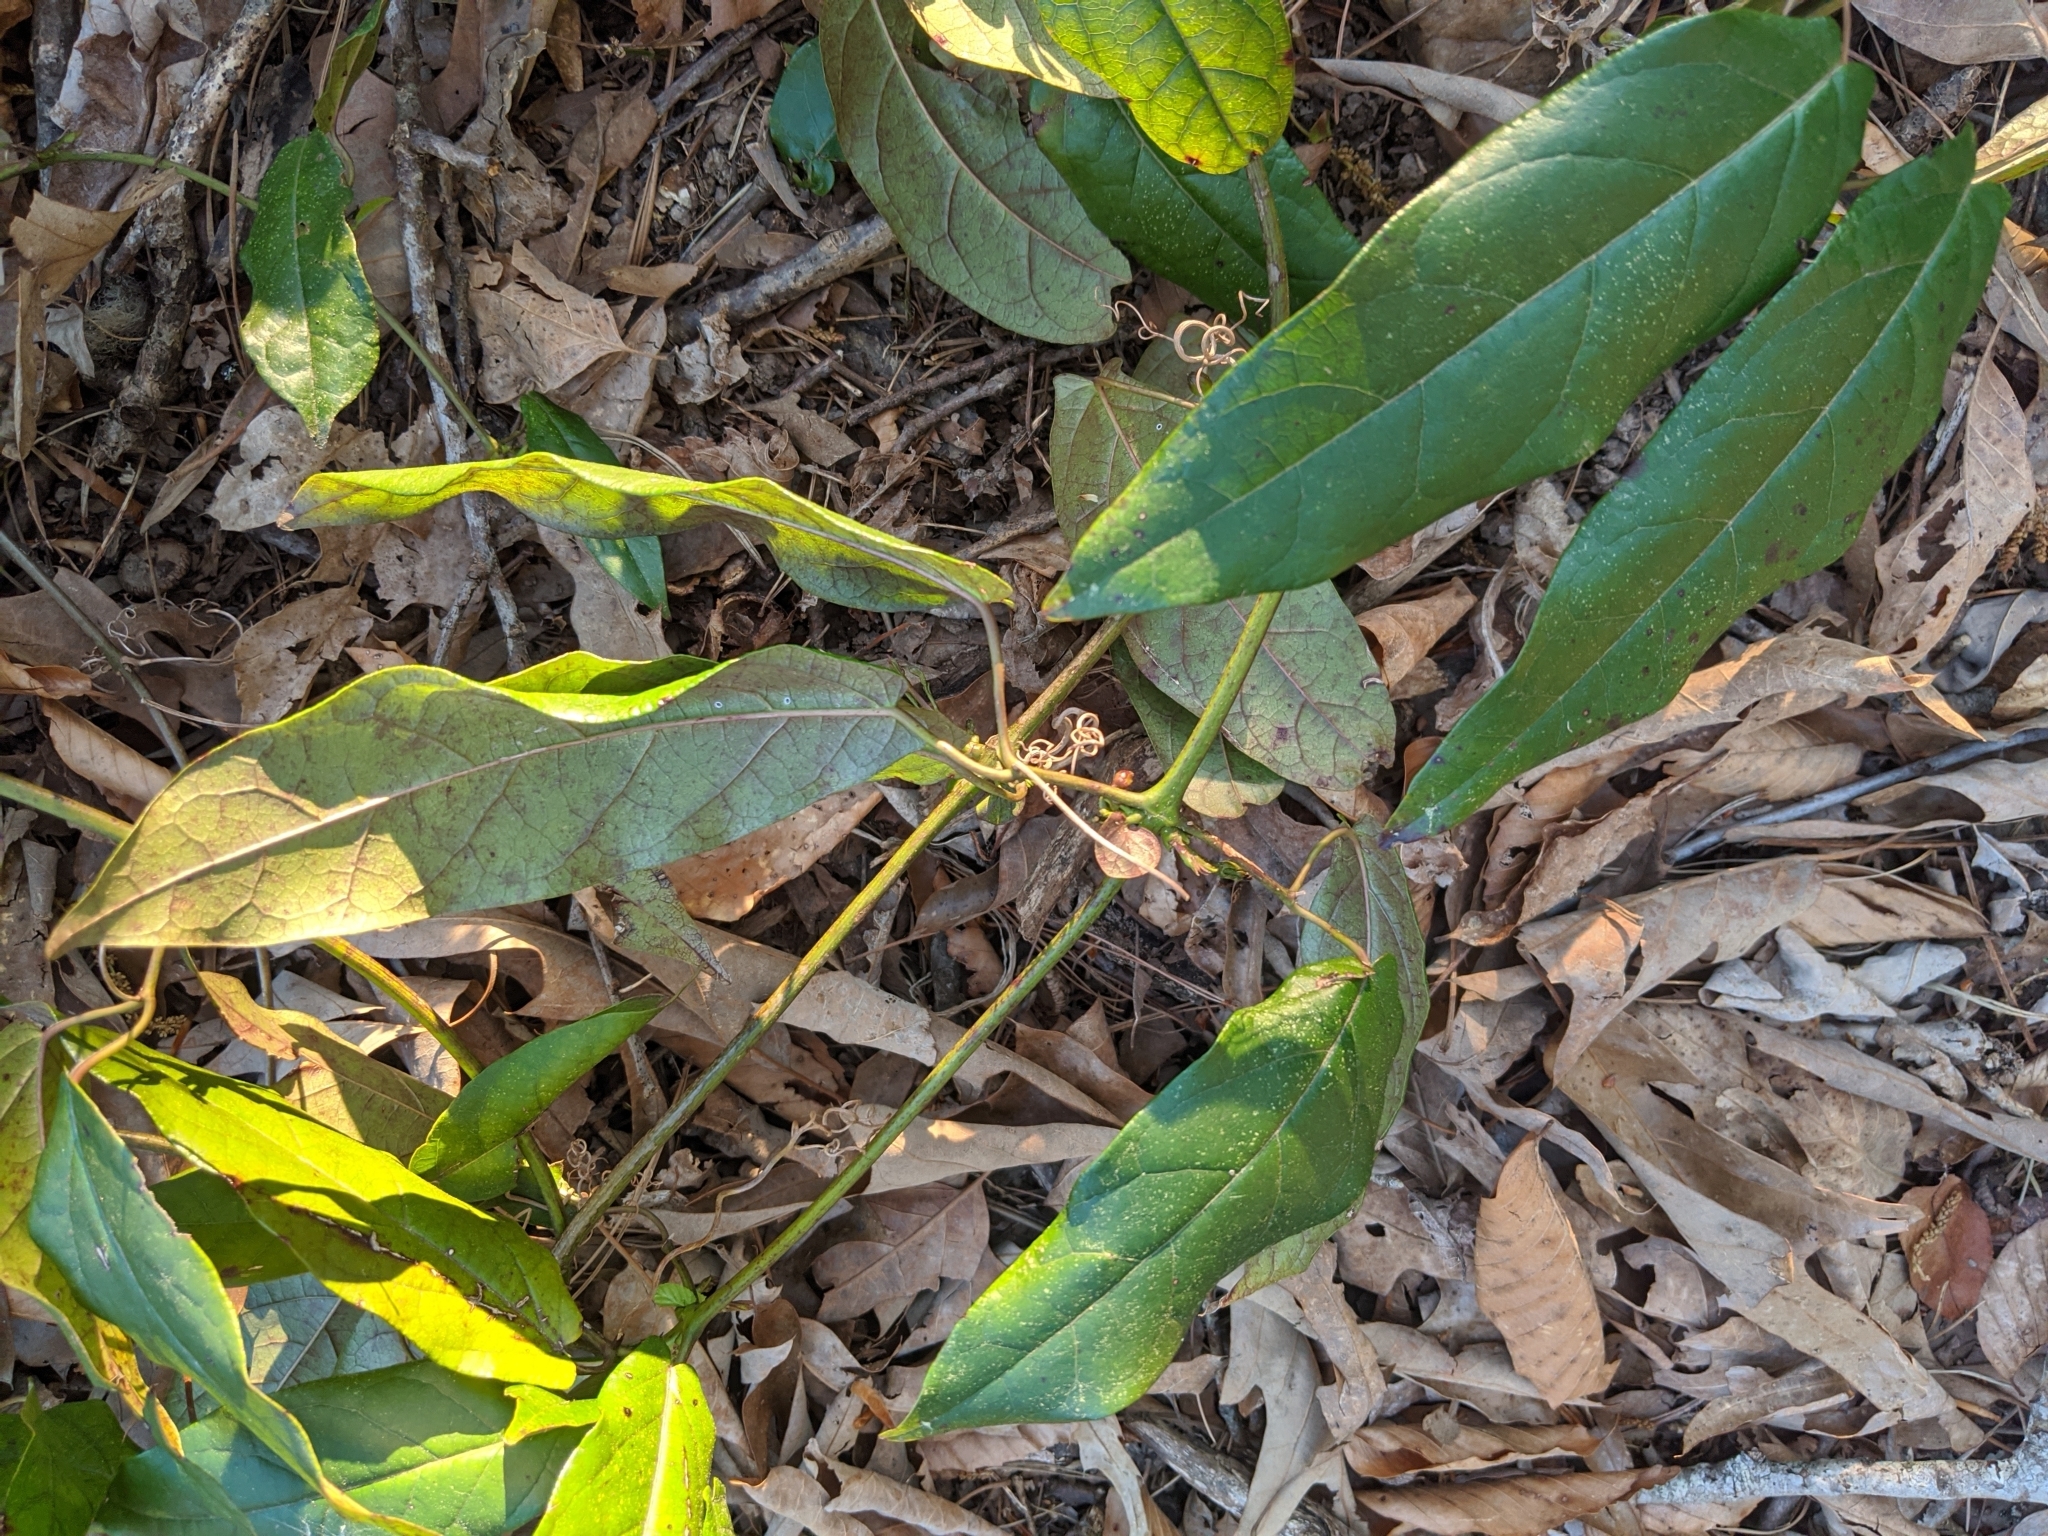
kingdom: Plantae
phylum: Tracheophyta
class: Magnoliopsida
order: Lamiales
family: Bignoniaceae
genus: Bignonia
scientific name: Bignonia capreolata
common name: Crossvine
